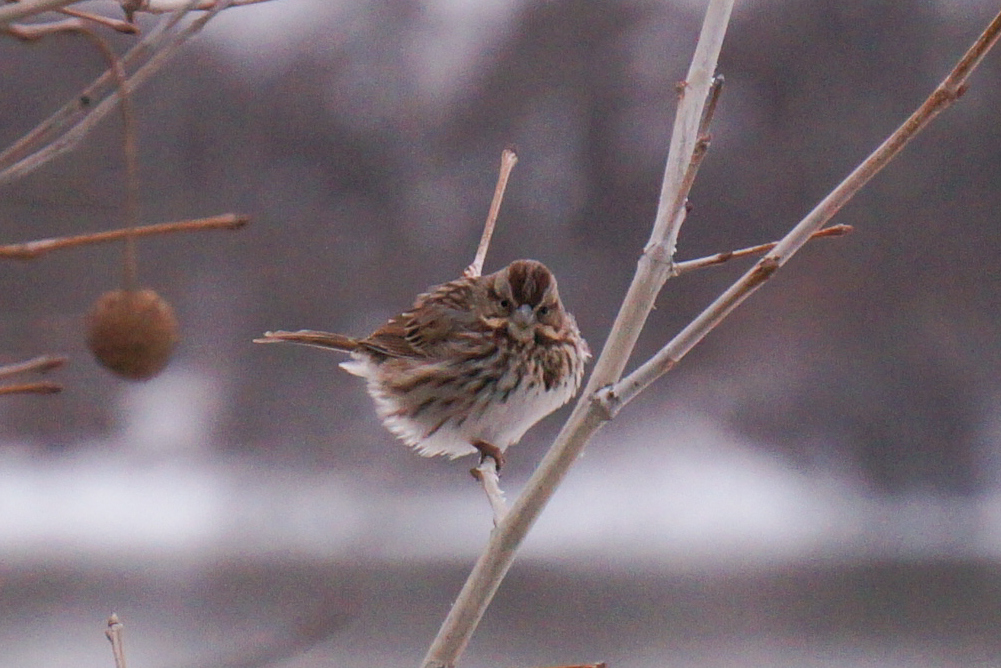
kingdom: Animalia
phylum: Chordata
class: Aves
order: Passeriformes
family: Passerellidae
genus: Melospiza
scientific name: Melospiza melodia
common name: Song sparrow
